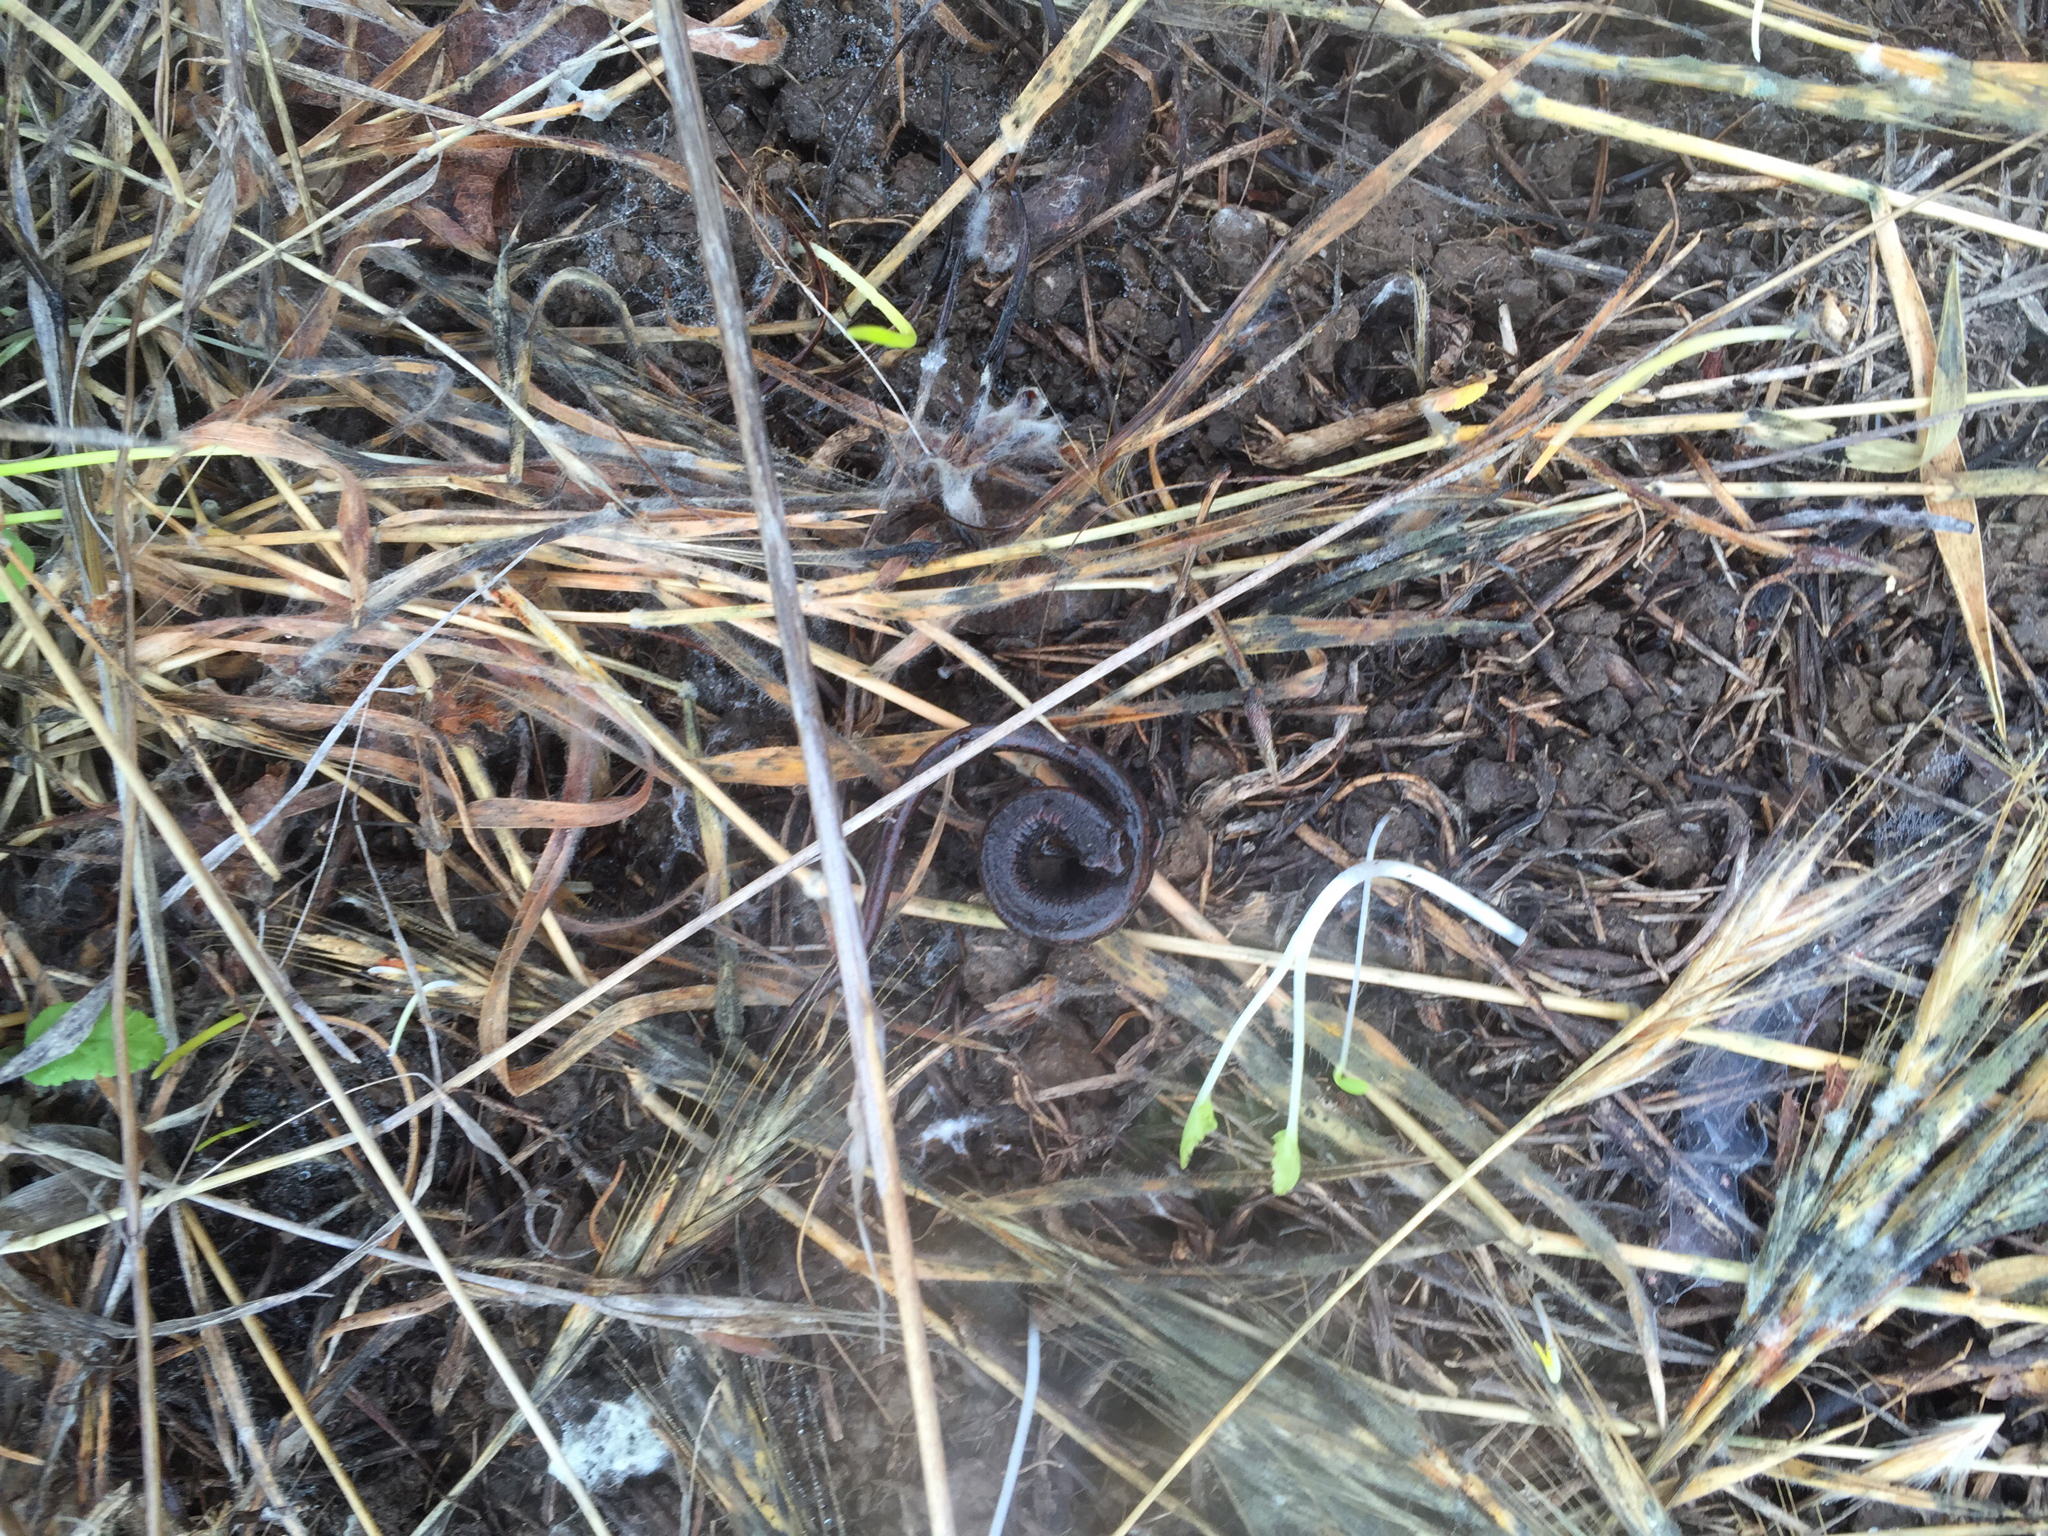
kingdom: Animalia
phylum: Chordata
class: Amphibia
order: Caudata
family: Plethodontidae
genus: Batrachoseps
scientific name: Batrachoseps attenuatus
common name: California slender salamander
